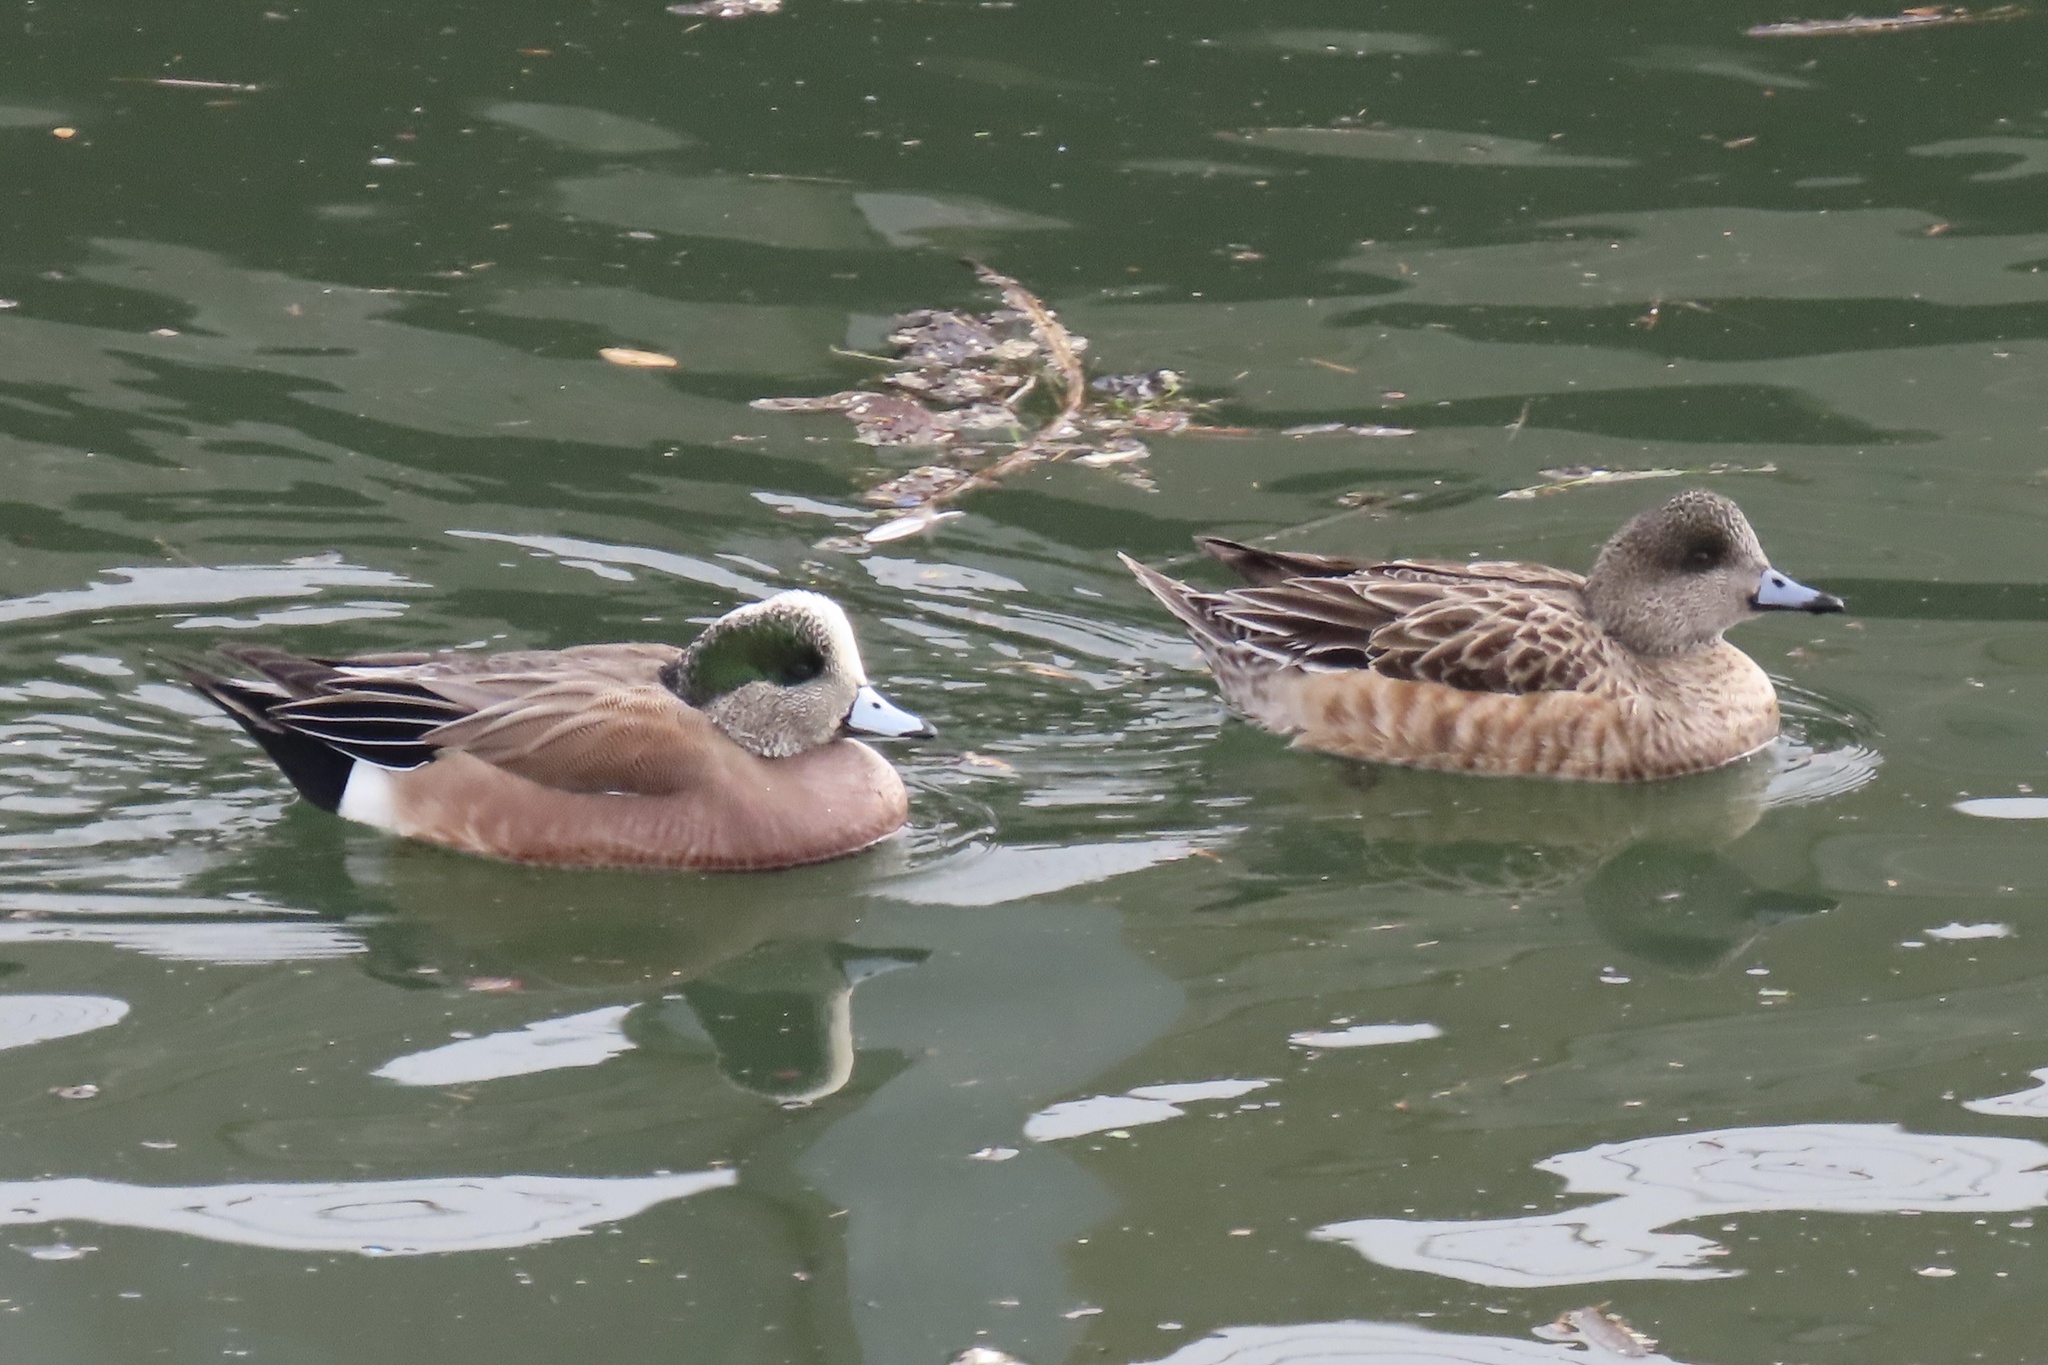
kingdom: Animalia
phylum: Chordata
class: Aves
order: Anseriformes
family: Anatidae
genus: Mareca
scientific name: Mareca americana
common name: American wigeon
